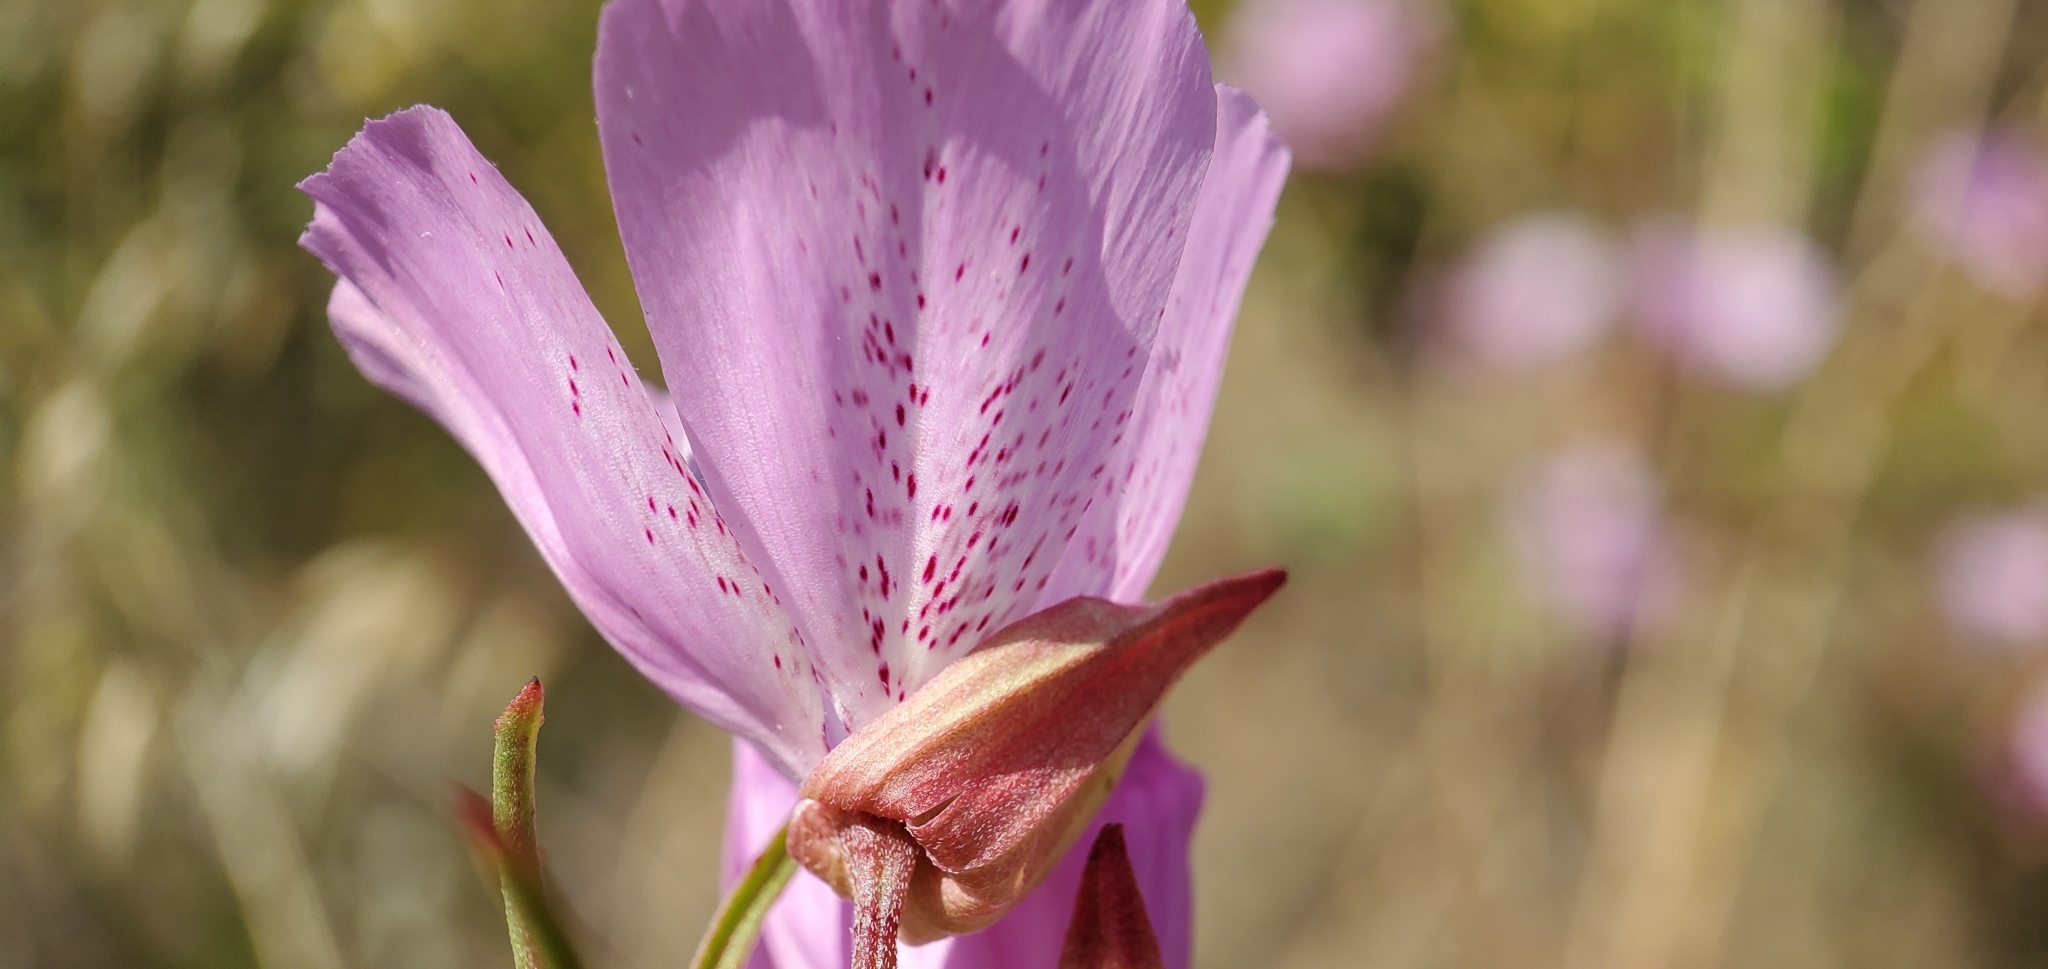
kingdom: Plantae
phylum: Tracheophyta
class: Magnoliopsida
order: Myrtales
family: Onagraceae
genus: Clarkia
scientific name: Clarkia bottae
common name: Punch-bowl godetia
